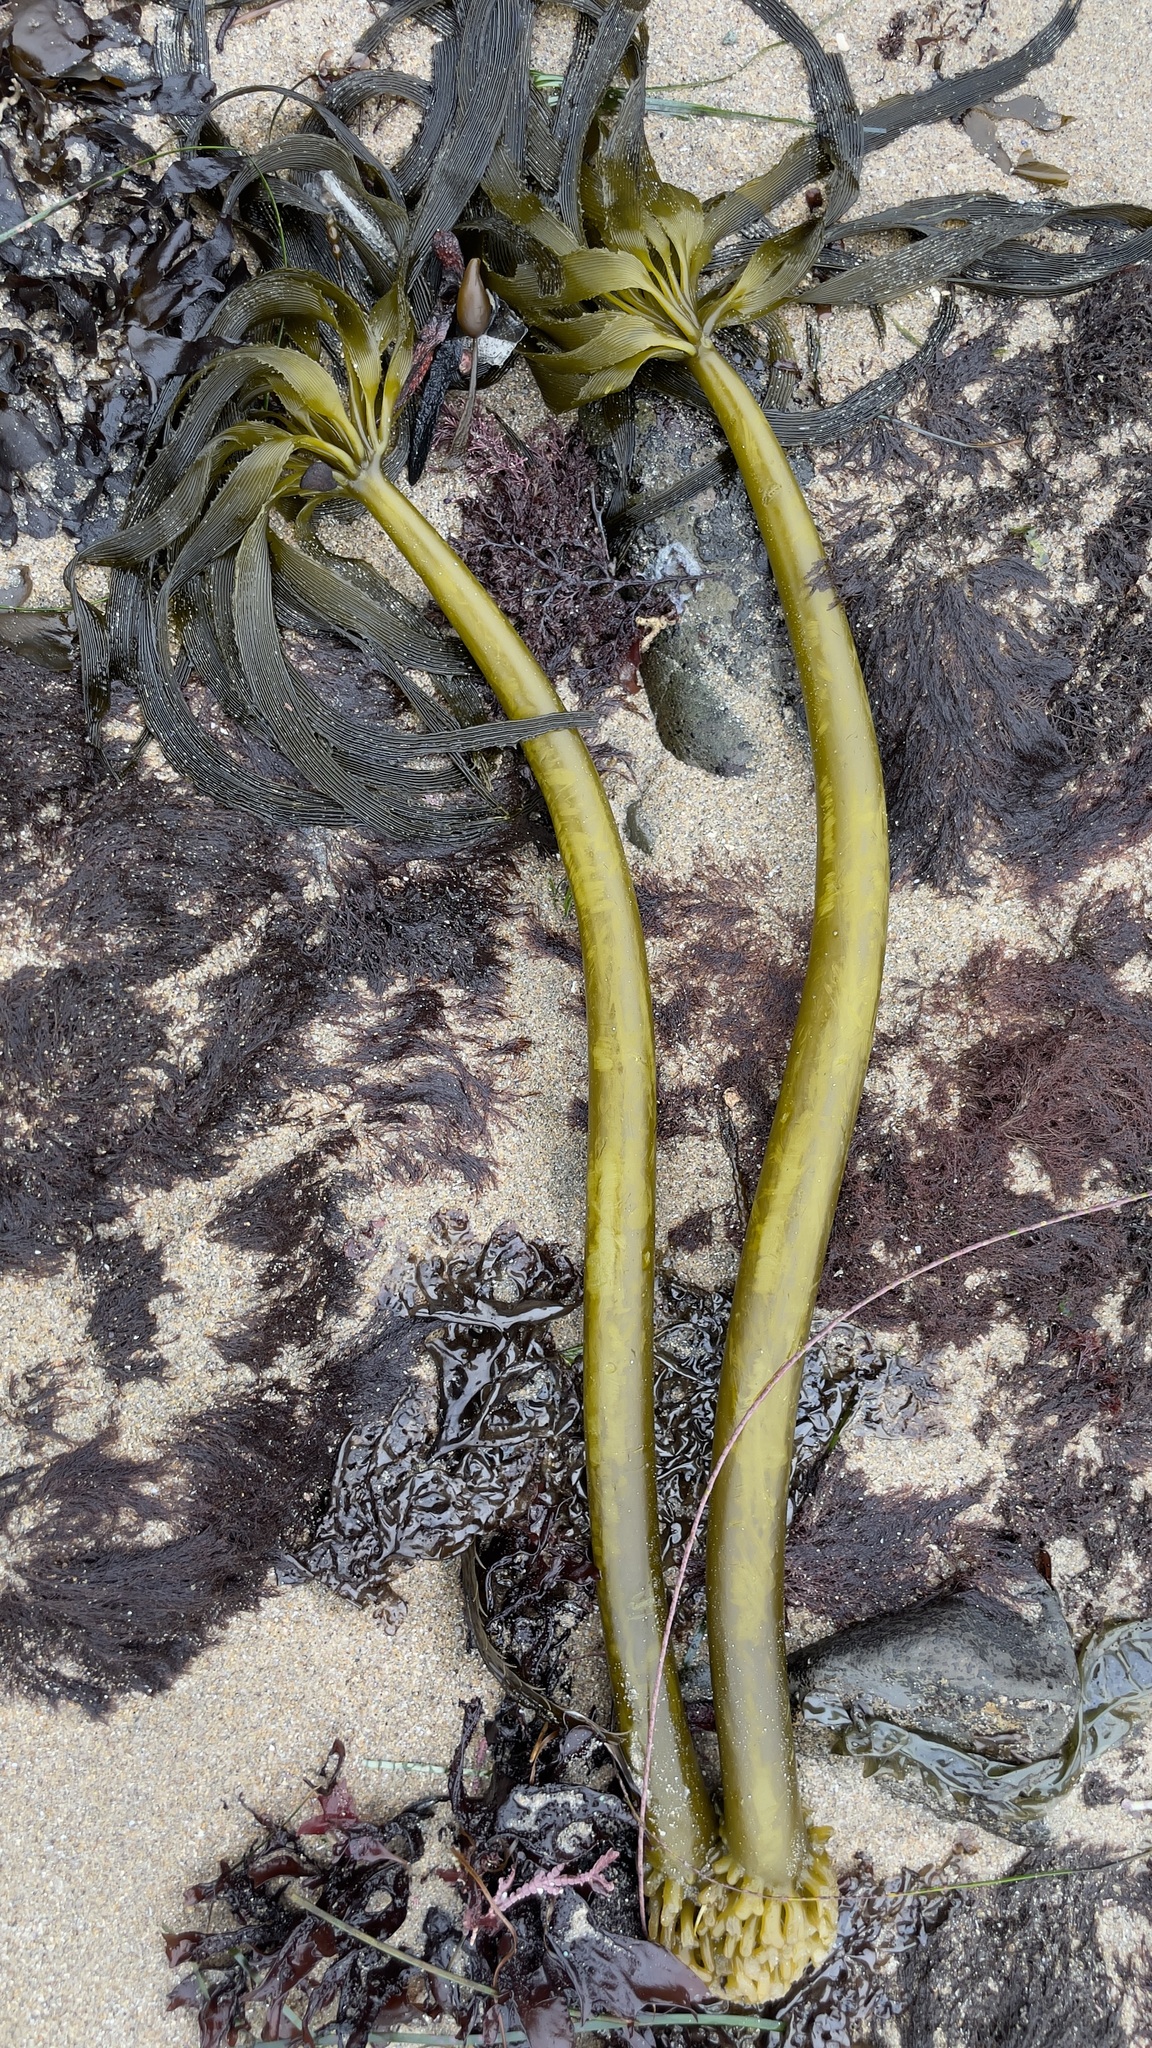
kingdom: Chromista
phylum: Ochrophyta
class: Phaeophyceae
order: Laminariales
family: Laminariaceae
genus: Postelsia
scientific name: Postelsia palmiformis
